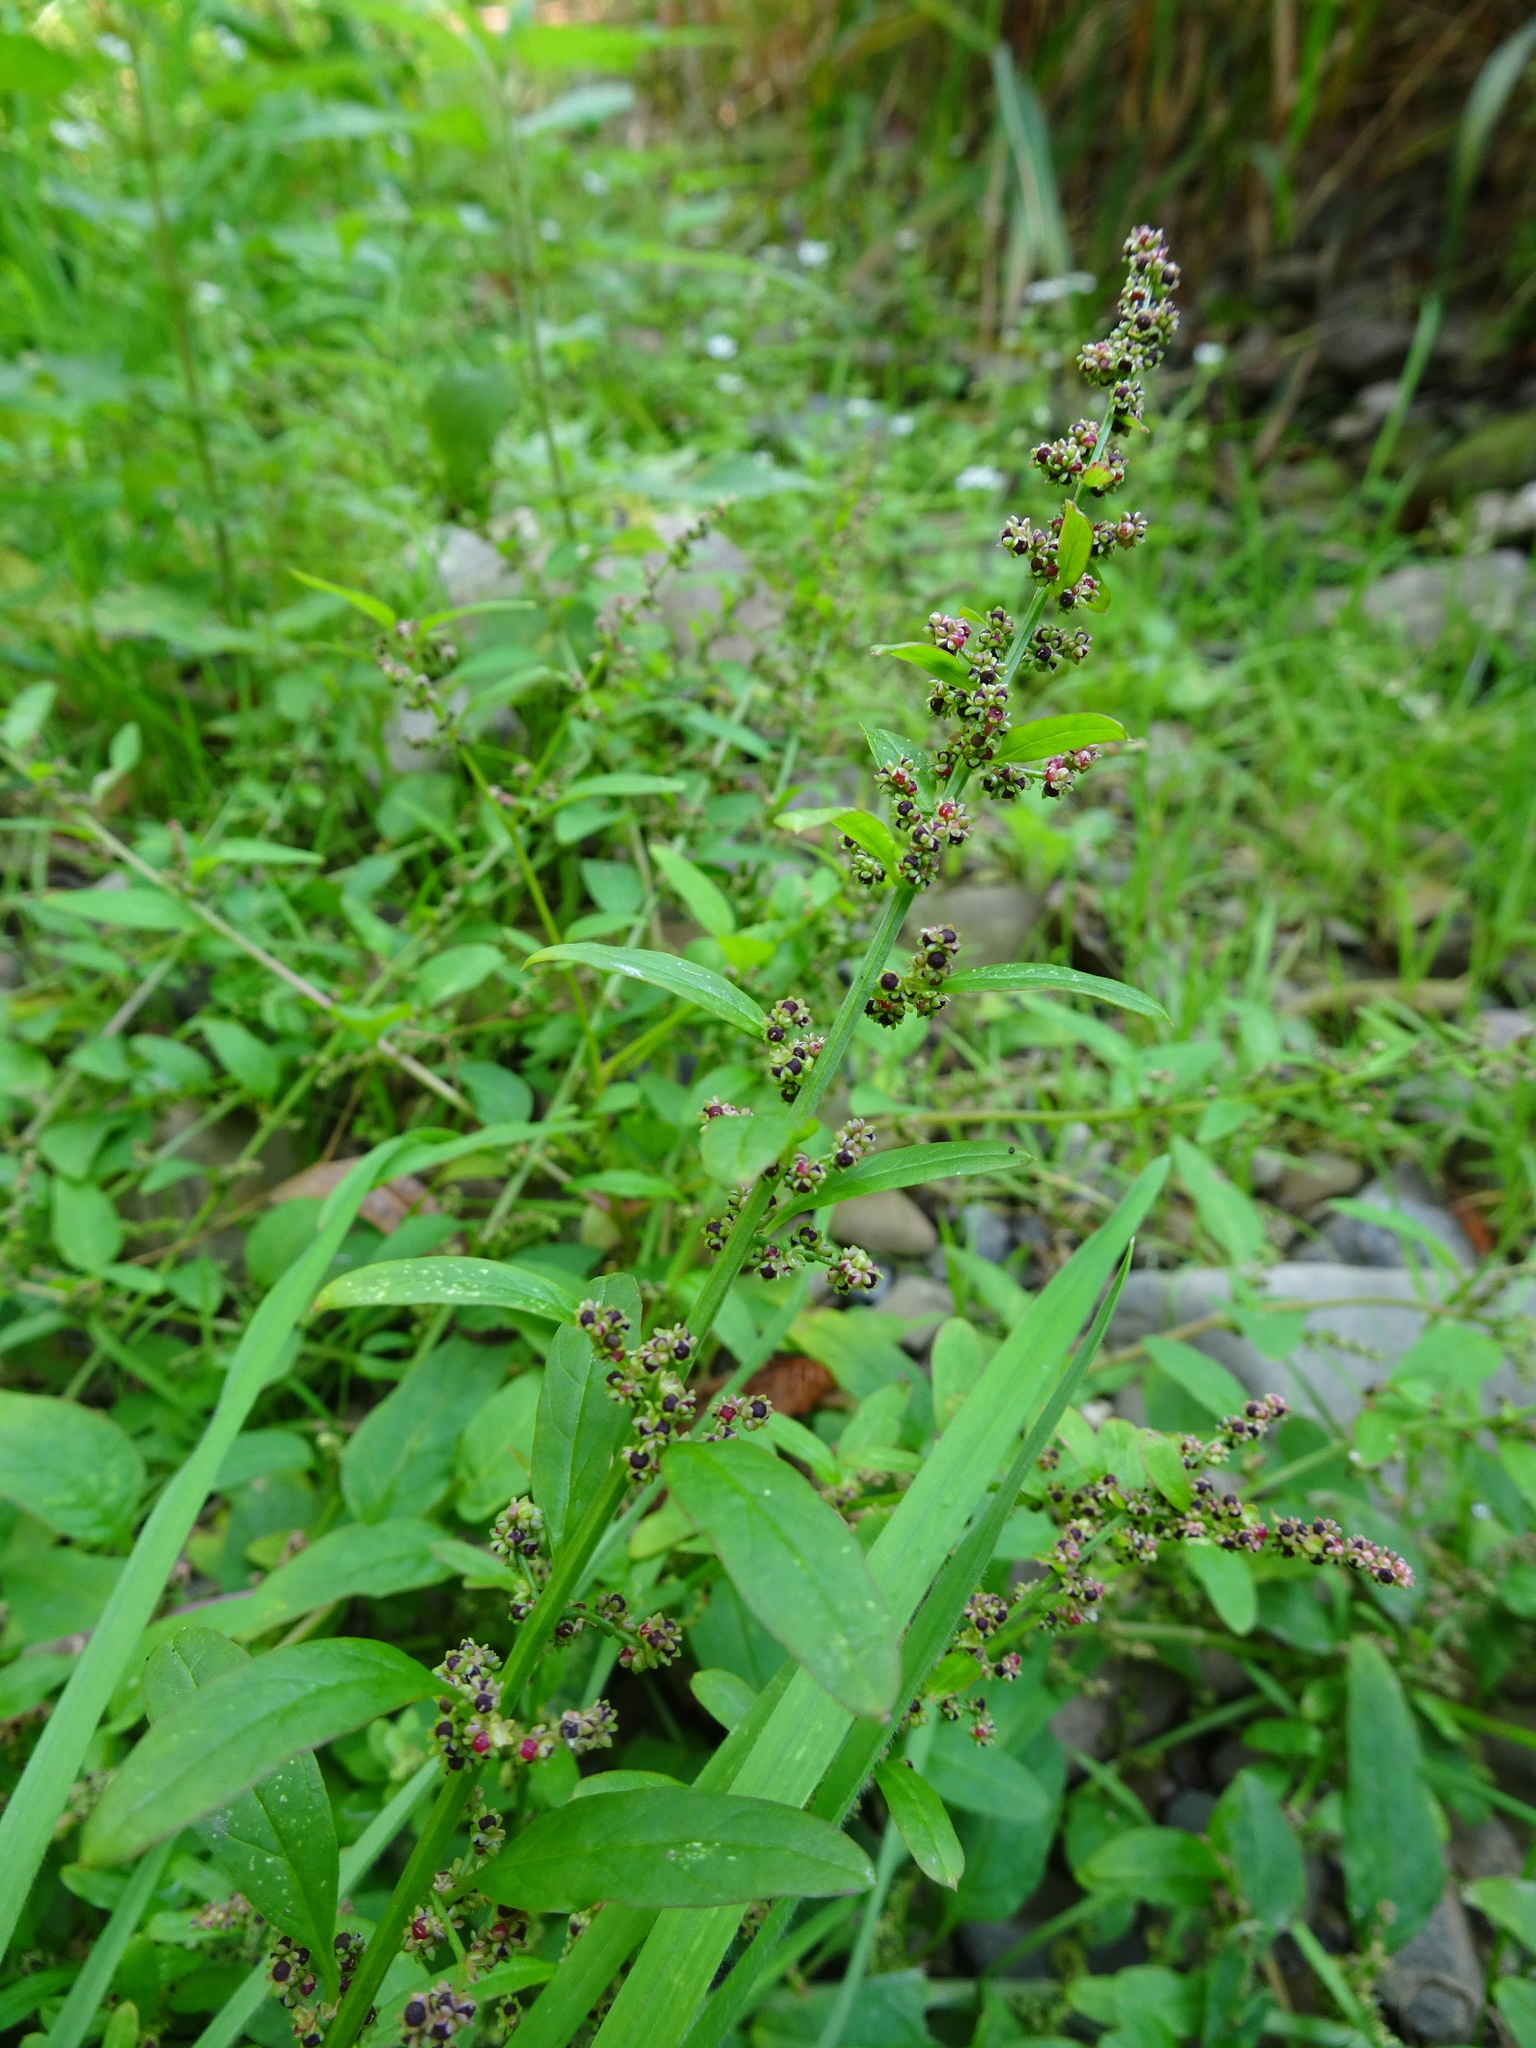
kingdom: Plantae
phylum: Tracheophyta
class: Magnoliopsida
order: Caryophyllales
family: Amaranthaceae
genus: Lipandra
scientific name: Lipandra polysperma
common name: Many-seed goosefoot
